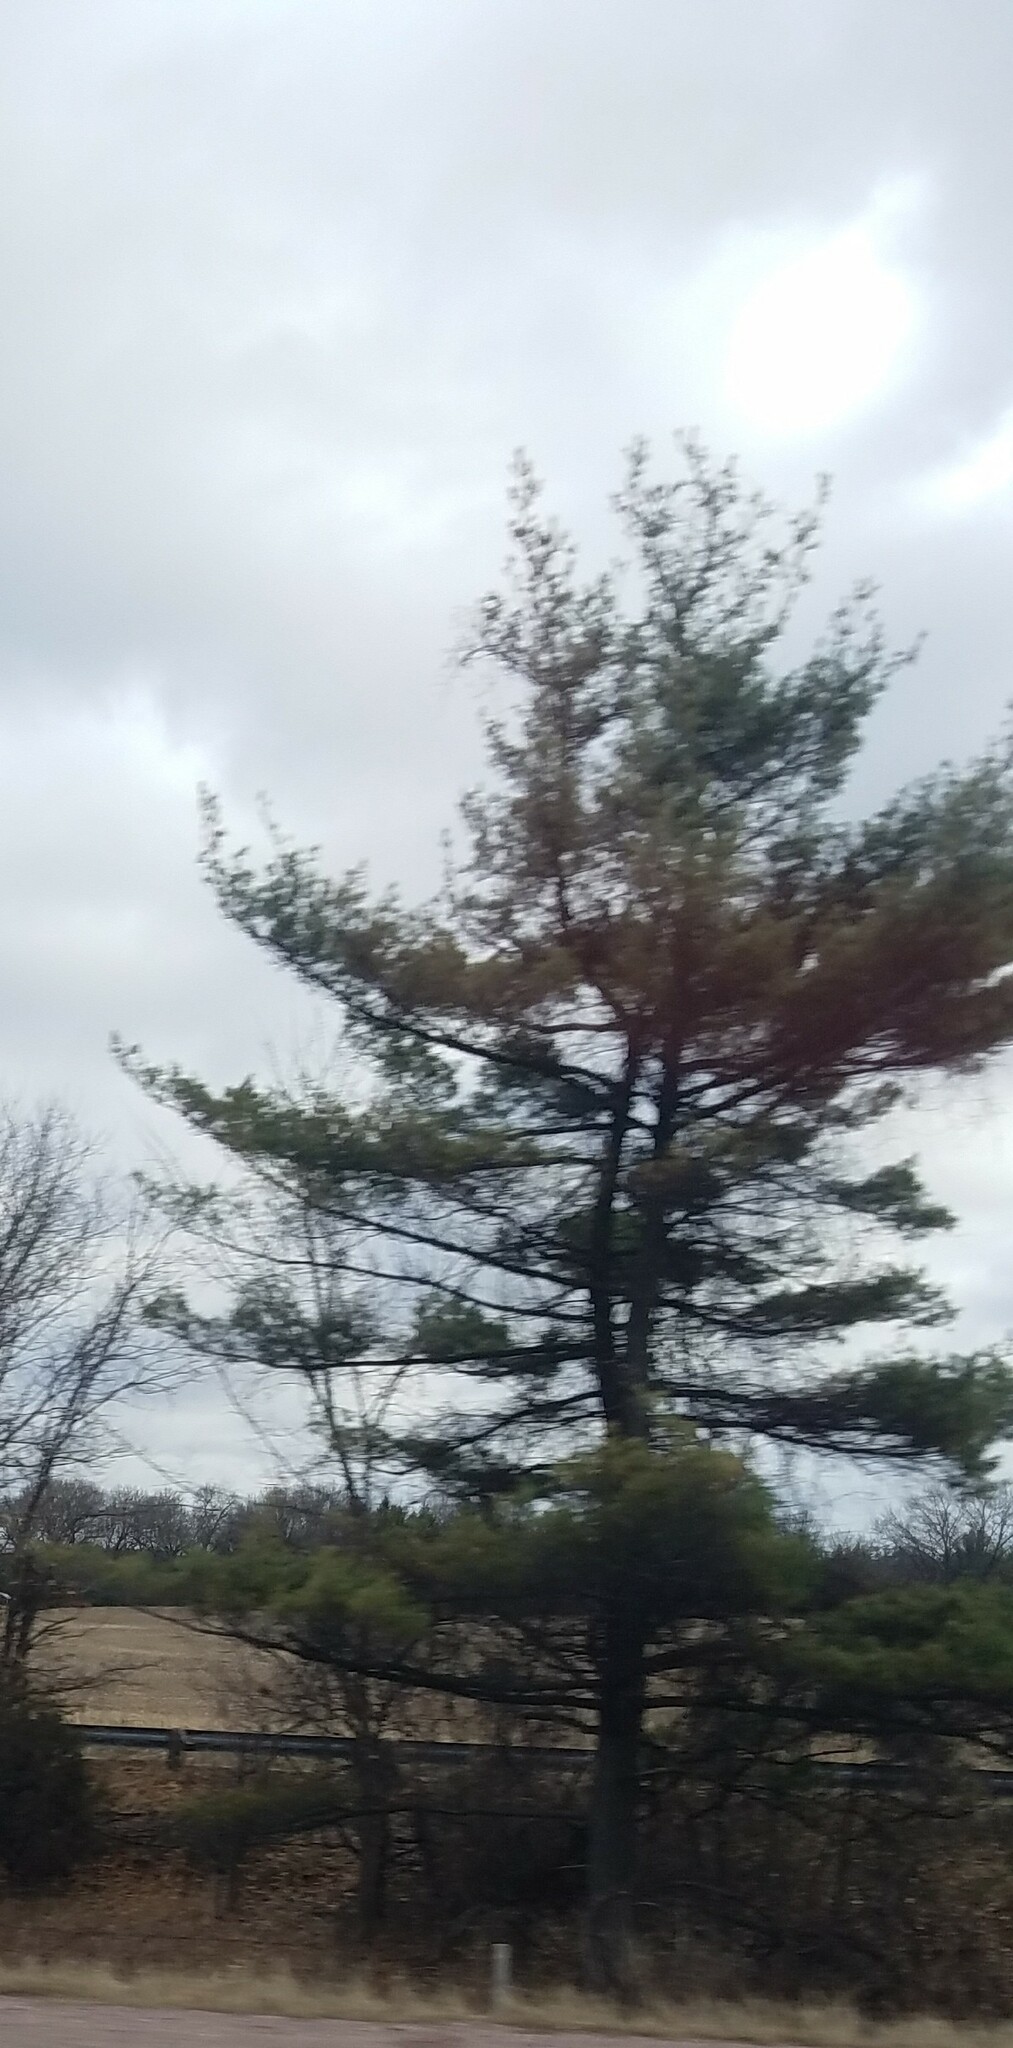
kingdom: Plantae
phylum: Tracheophyta
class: Pinopsida
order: Pinales
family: Pinaceae
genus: Pinus
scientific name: Pinus strobus
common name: Weymouth pine
